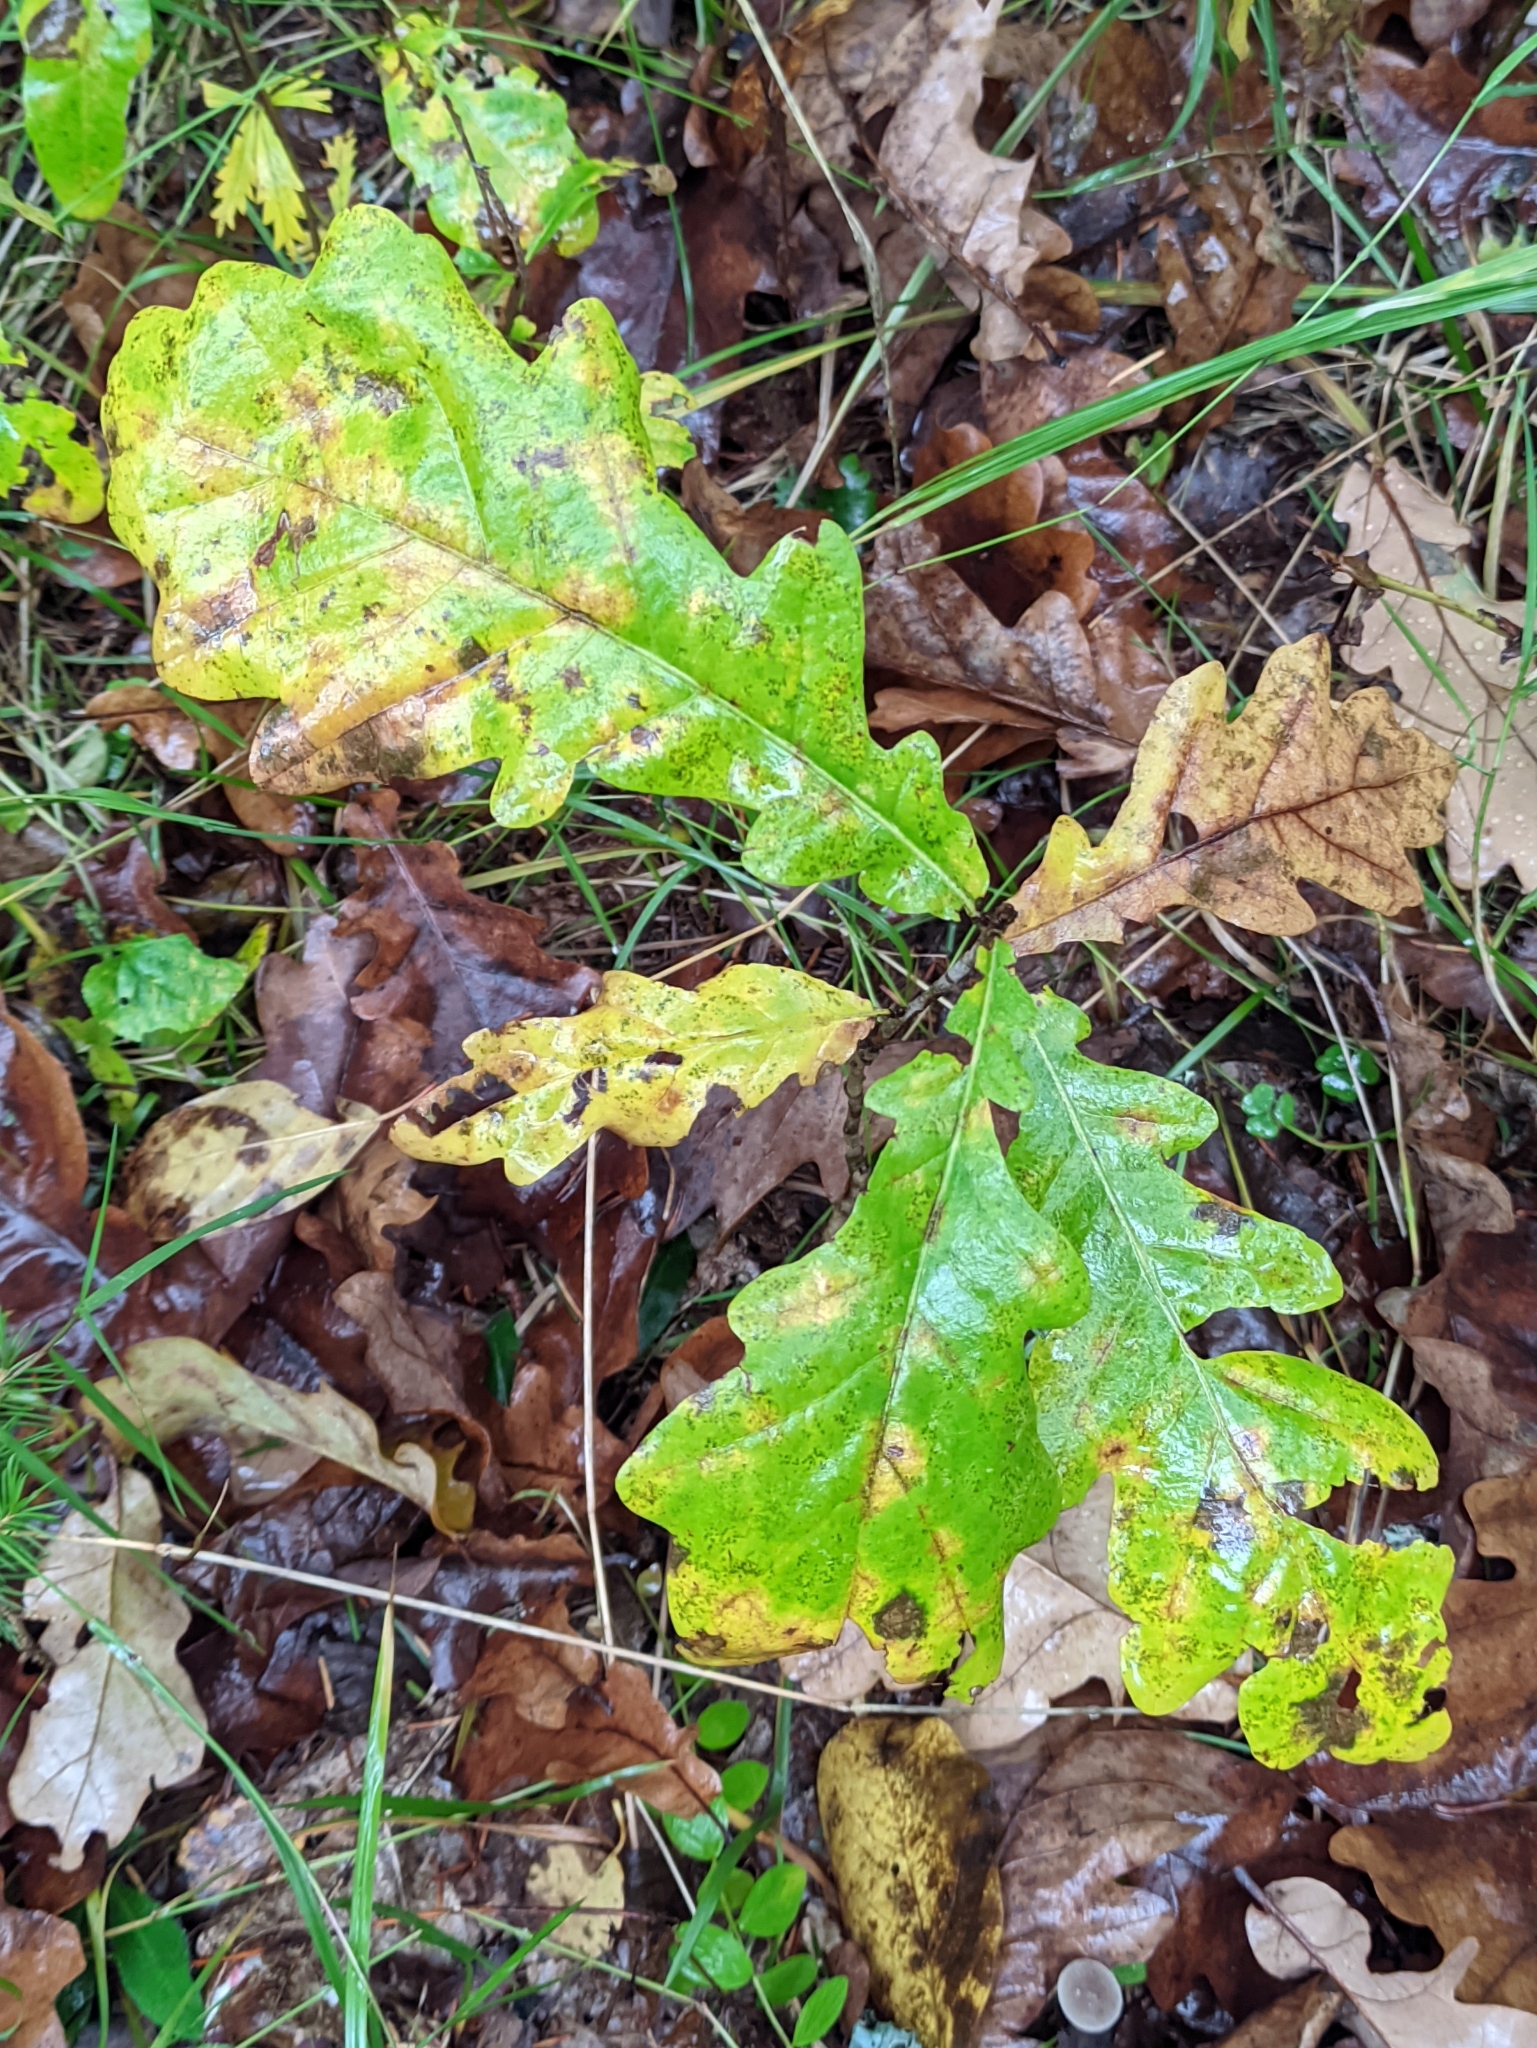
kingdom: Plantae
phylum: Tracheophyta
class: Magnoliopsida
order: Fagales
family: Fagaceae
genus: Quercus
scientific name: Quercus robur
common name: Pedunculate oak
